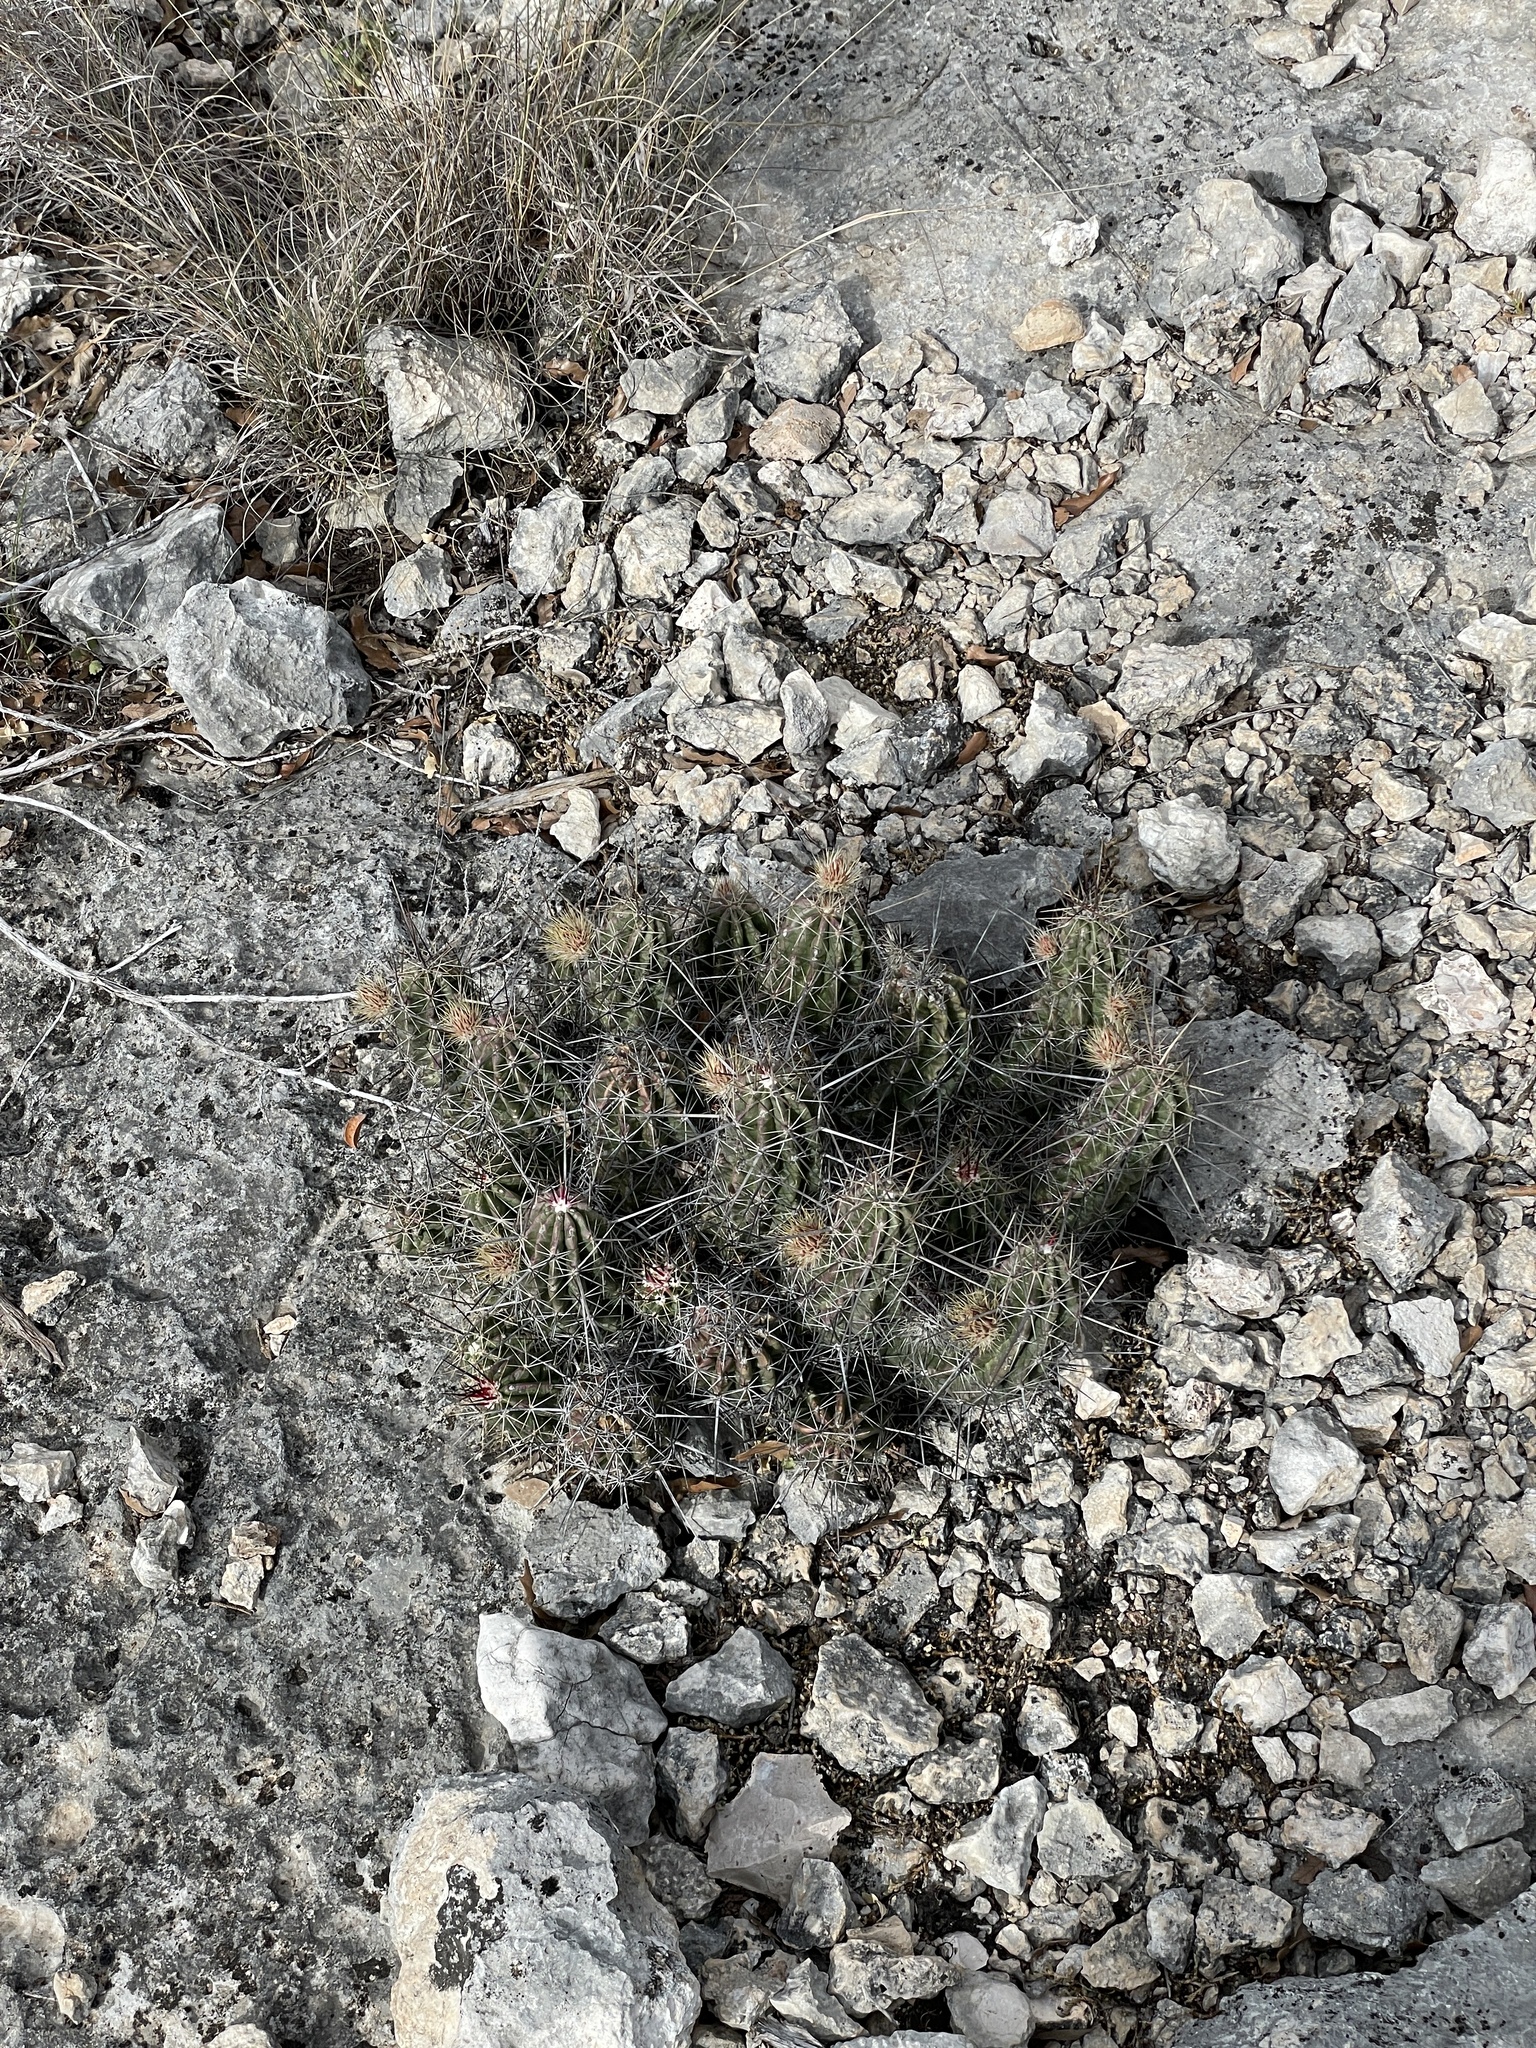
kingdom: Plantae
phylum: Tracheophyta
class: Magnoliopsida
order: Caryophyllales
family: Cactaceae
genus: Echinocereus
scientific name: Echinocereus enneacanthus
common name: Pitaya
